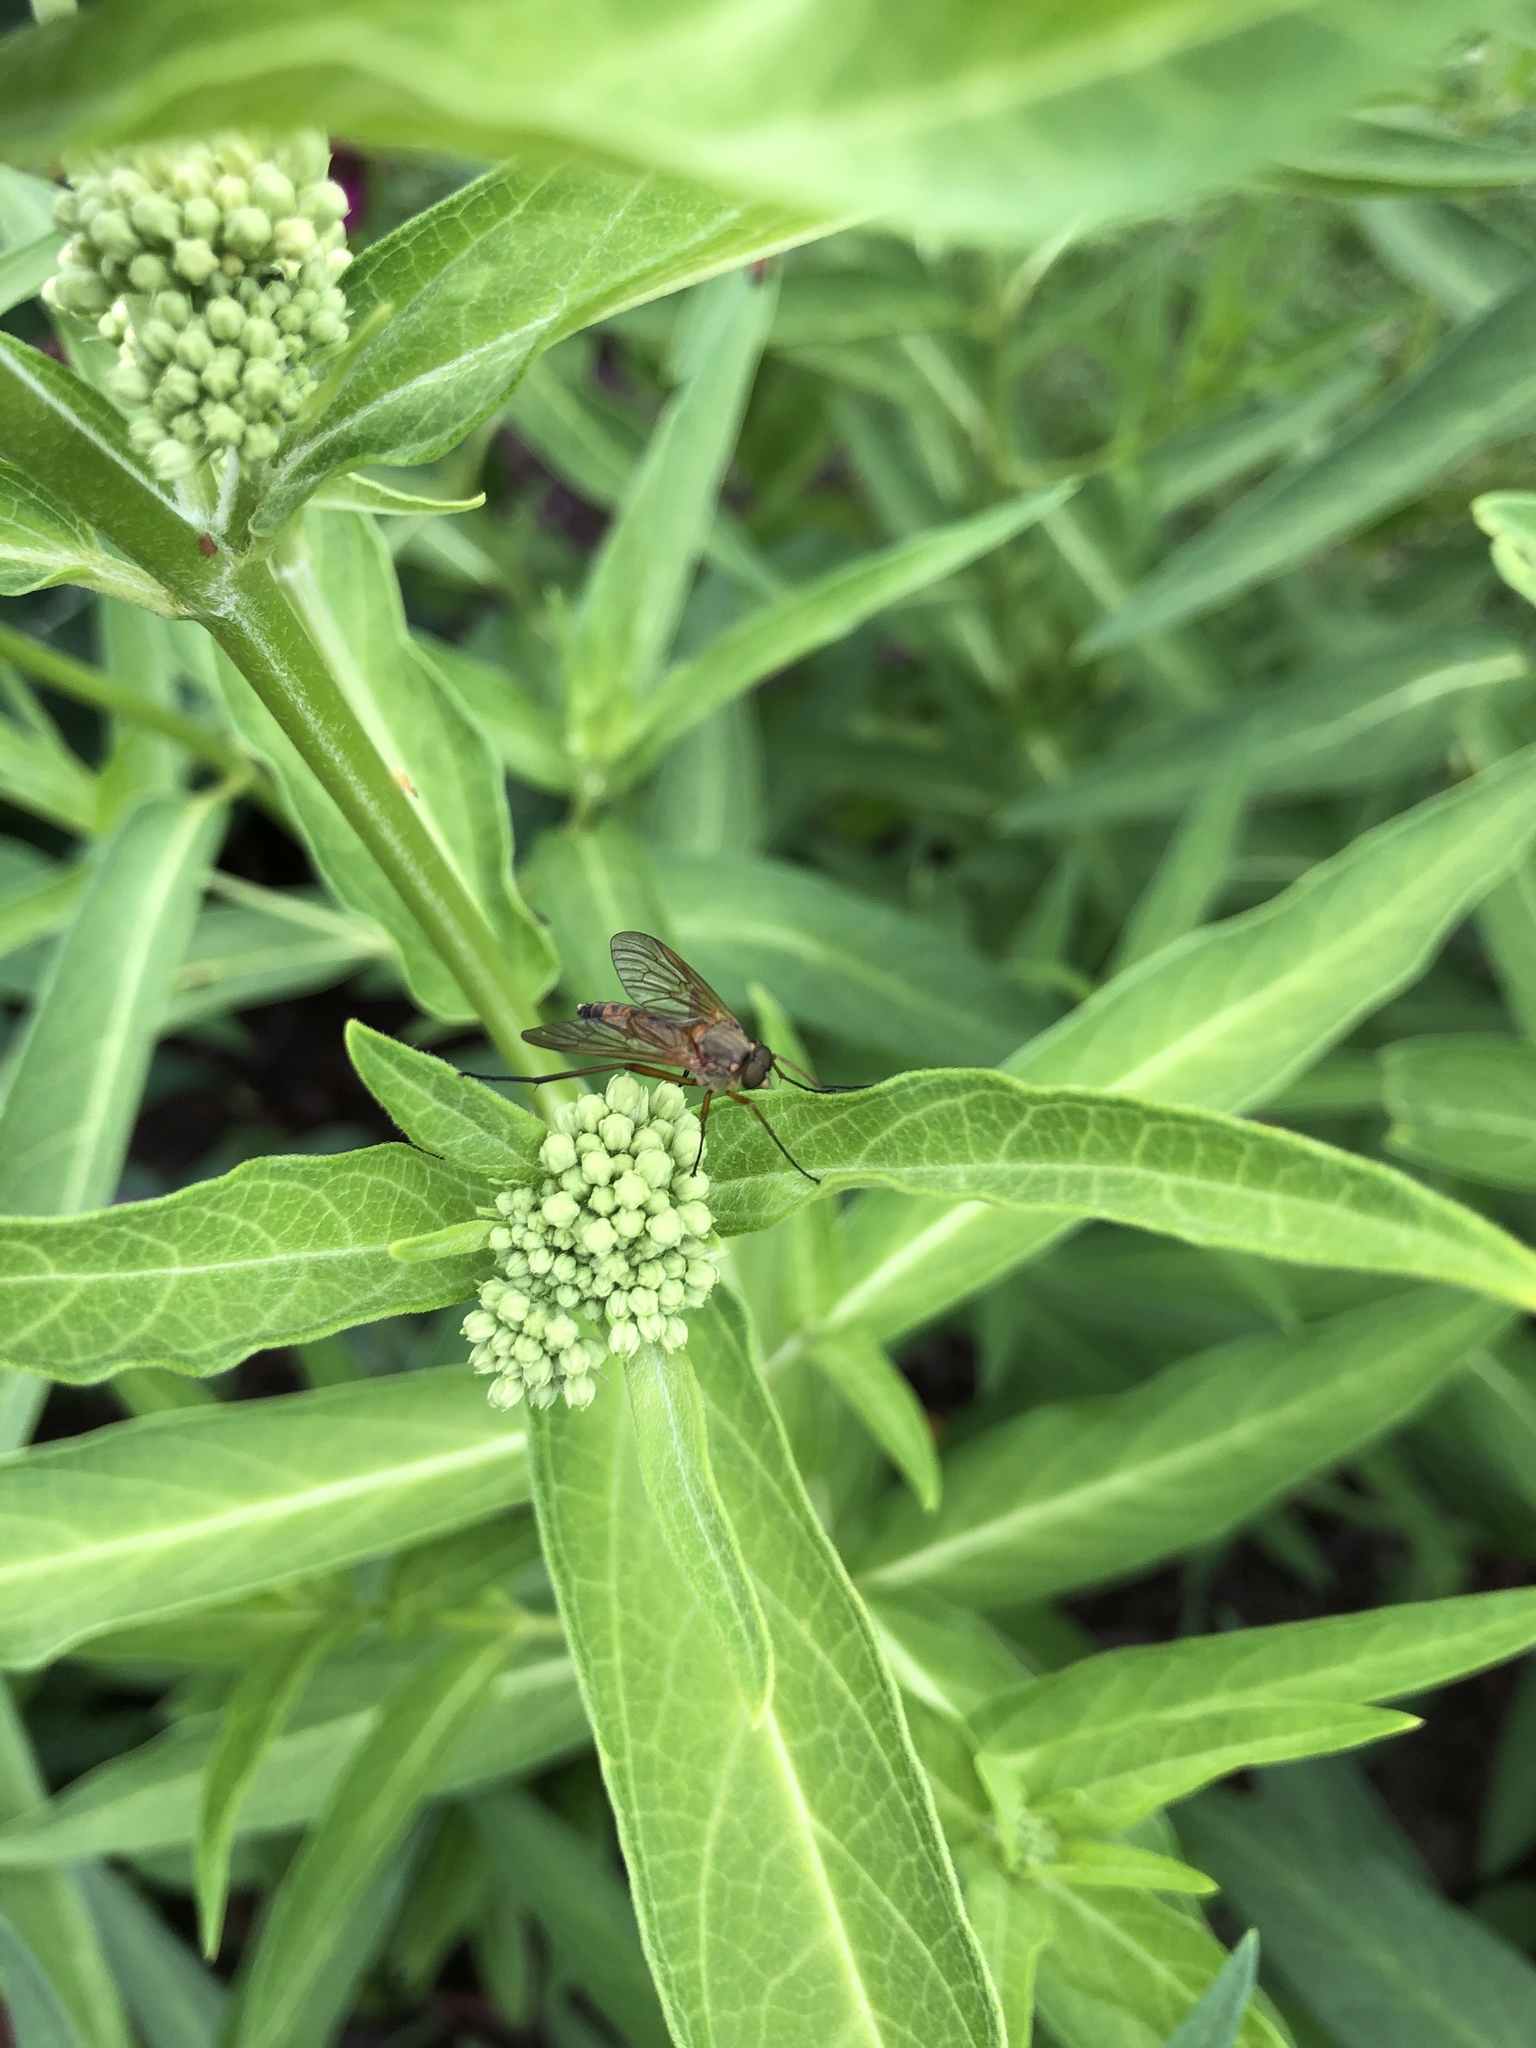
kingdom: Animalia
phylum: Arthropoda
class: Insecta
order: Diptera
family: Rhagionidae
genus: Rhagio
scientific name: Rhagio tringaria
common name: Marsh snipefly
